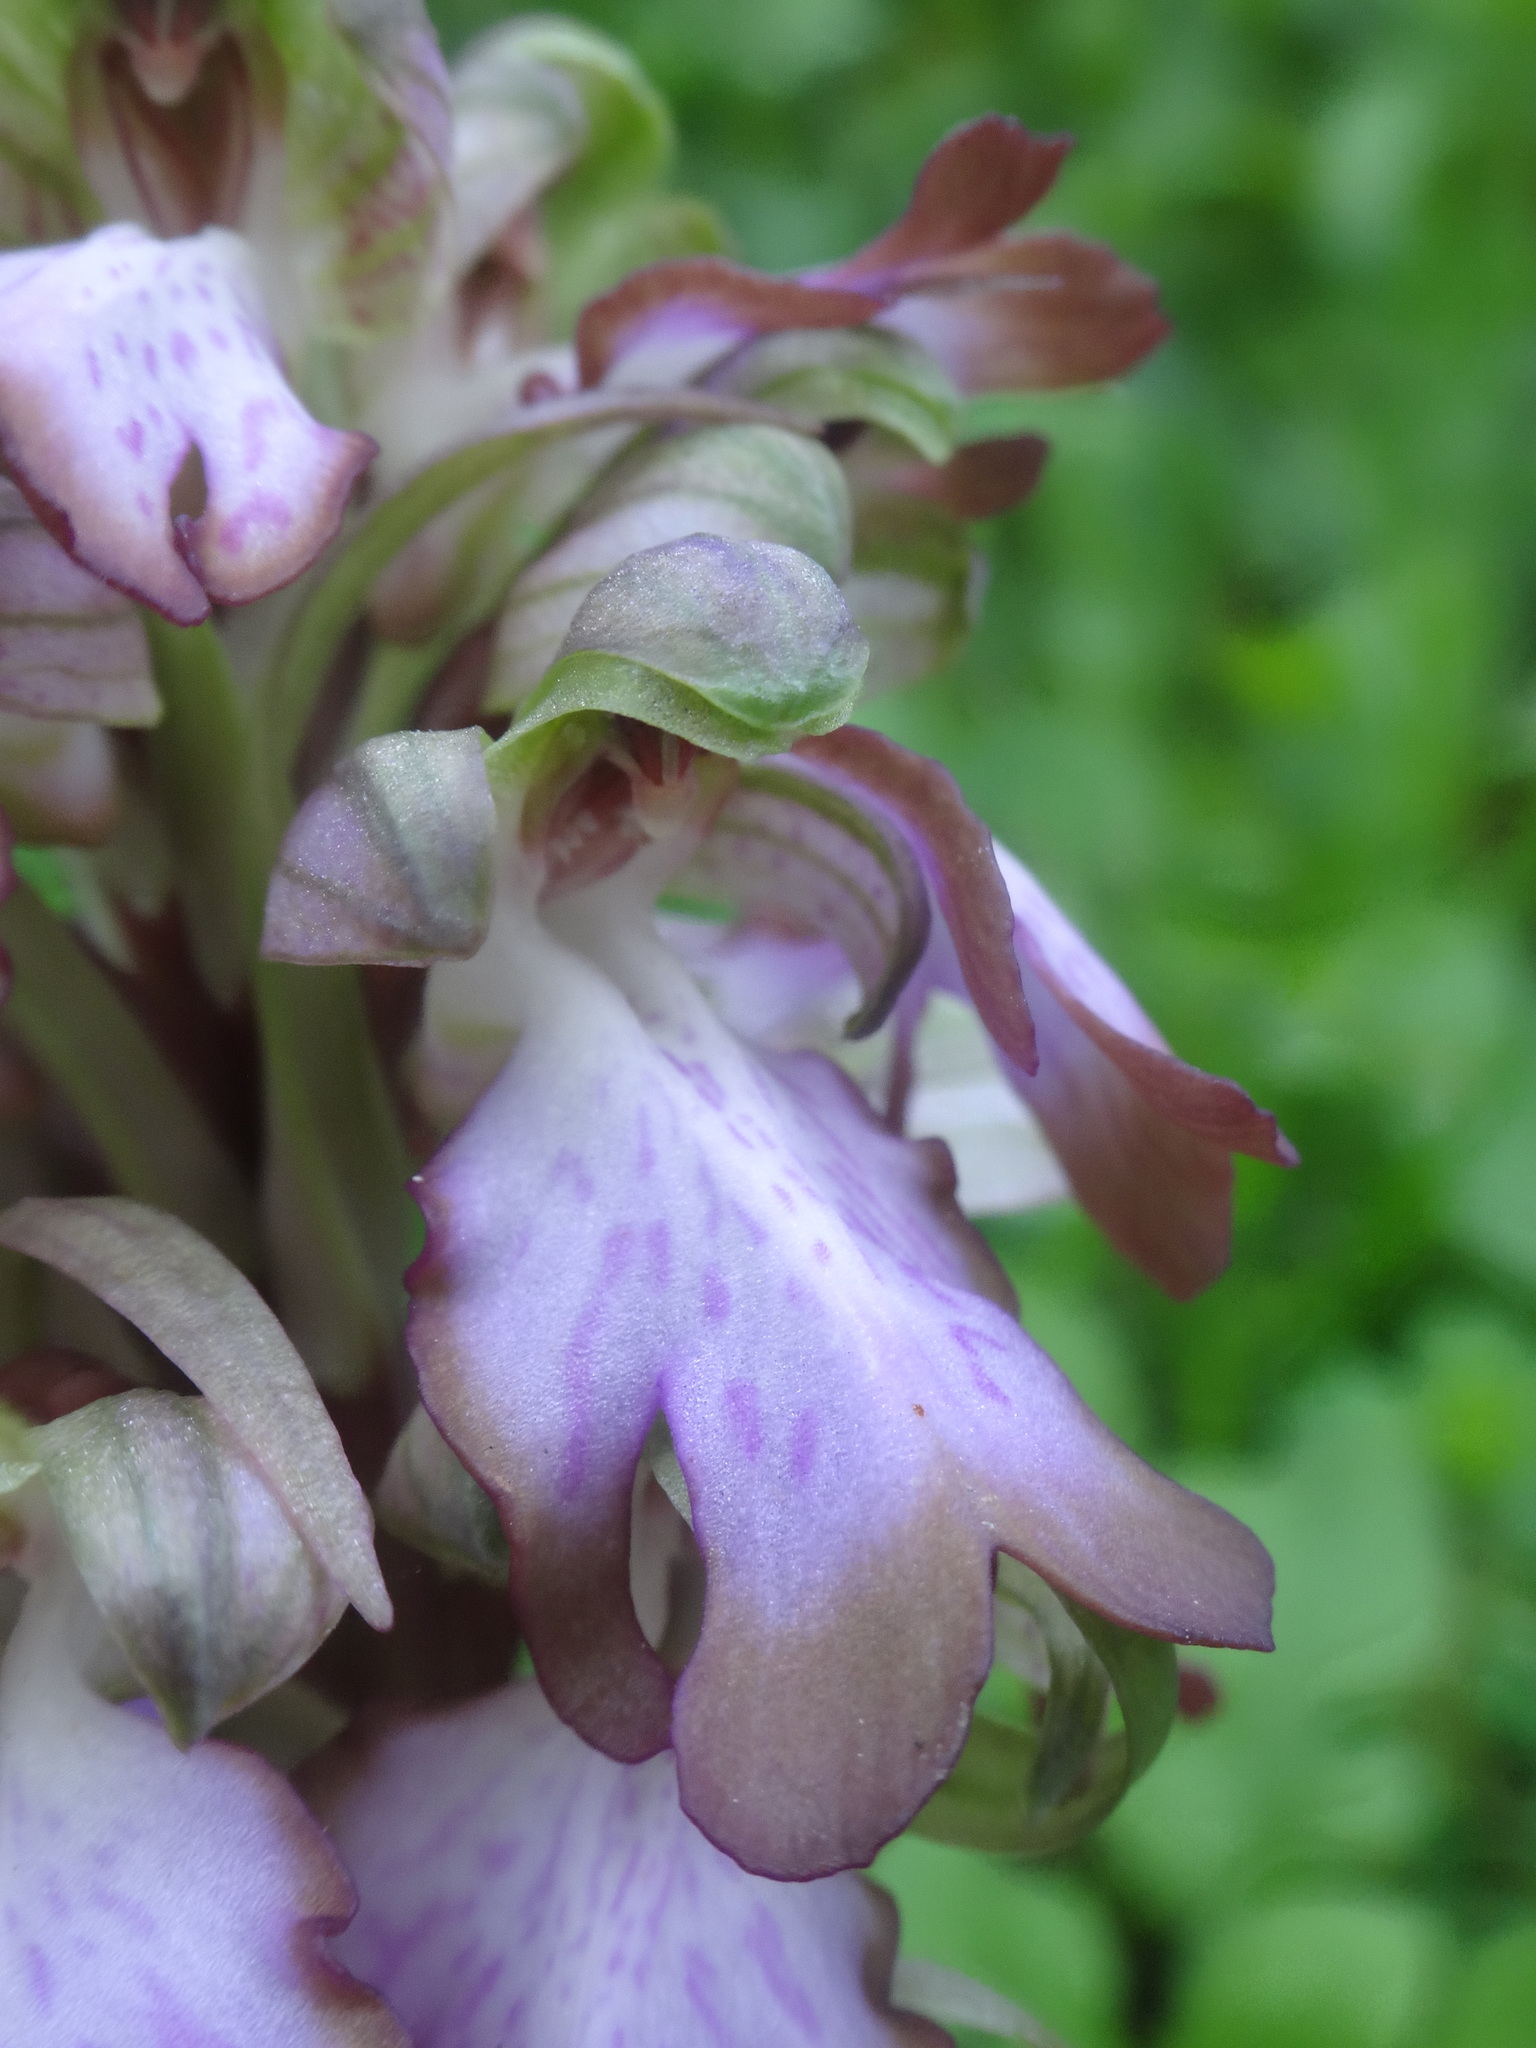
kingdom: Plantae
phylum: Tracheophyta
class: Liliopsida
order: Asparagales
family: Orchidaceae
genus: Himantoglossum
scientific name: Himantoglossum robertianum
